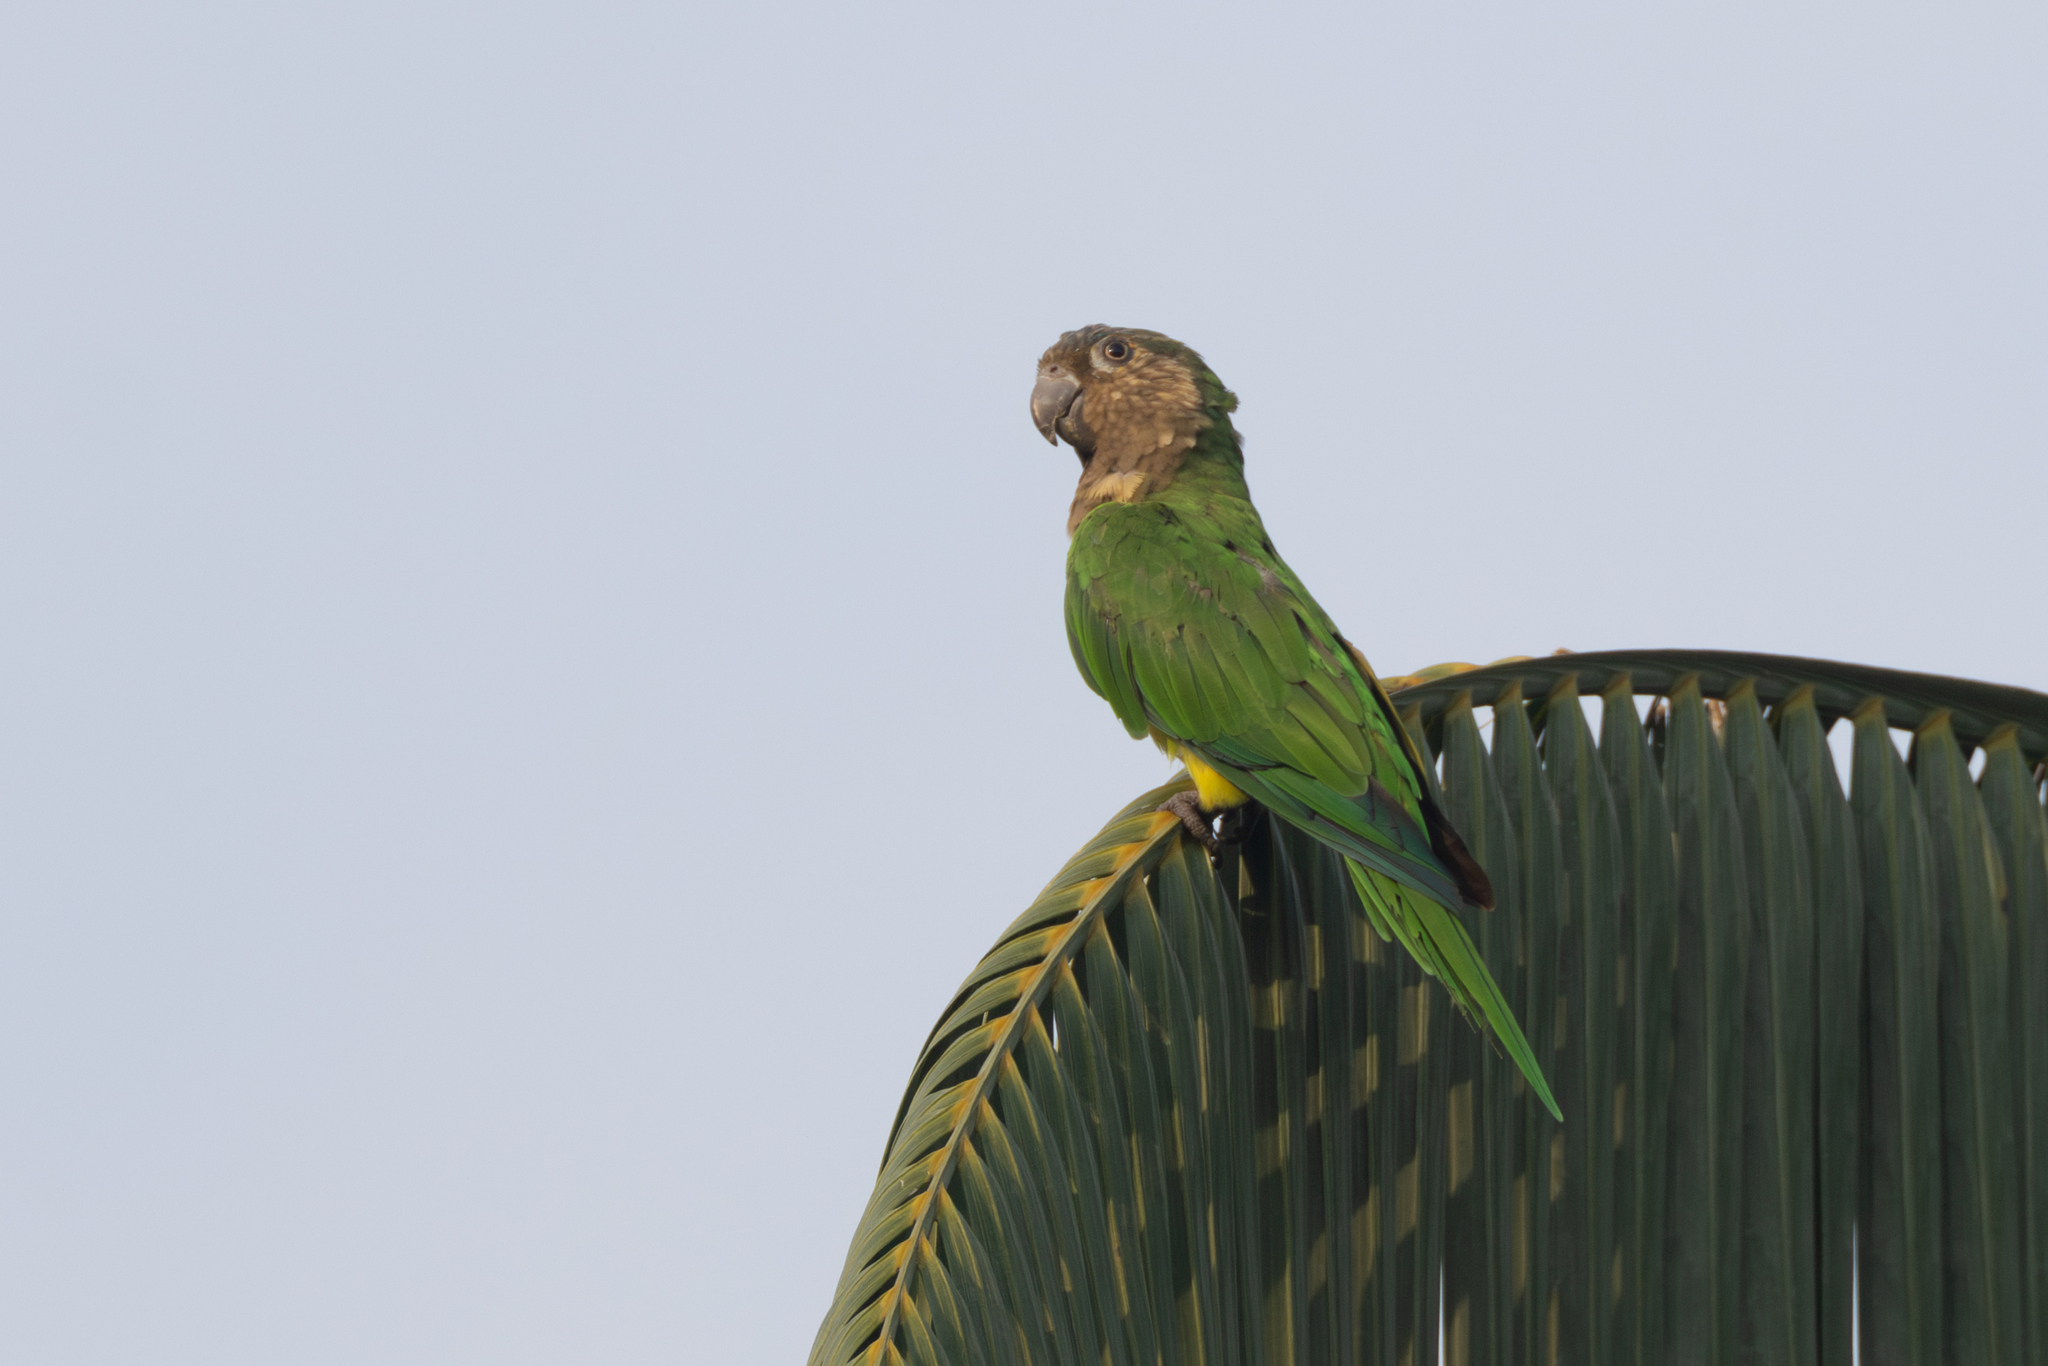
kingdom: Animalia
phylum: Chordata
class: Aves
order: Psittaciformes
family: Psittacidae
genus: Aratinga
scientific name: Aratinga pertinax
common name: Brown-throated parakeet
